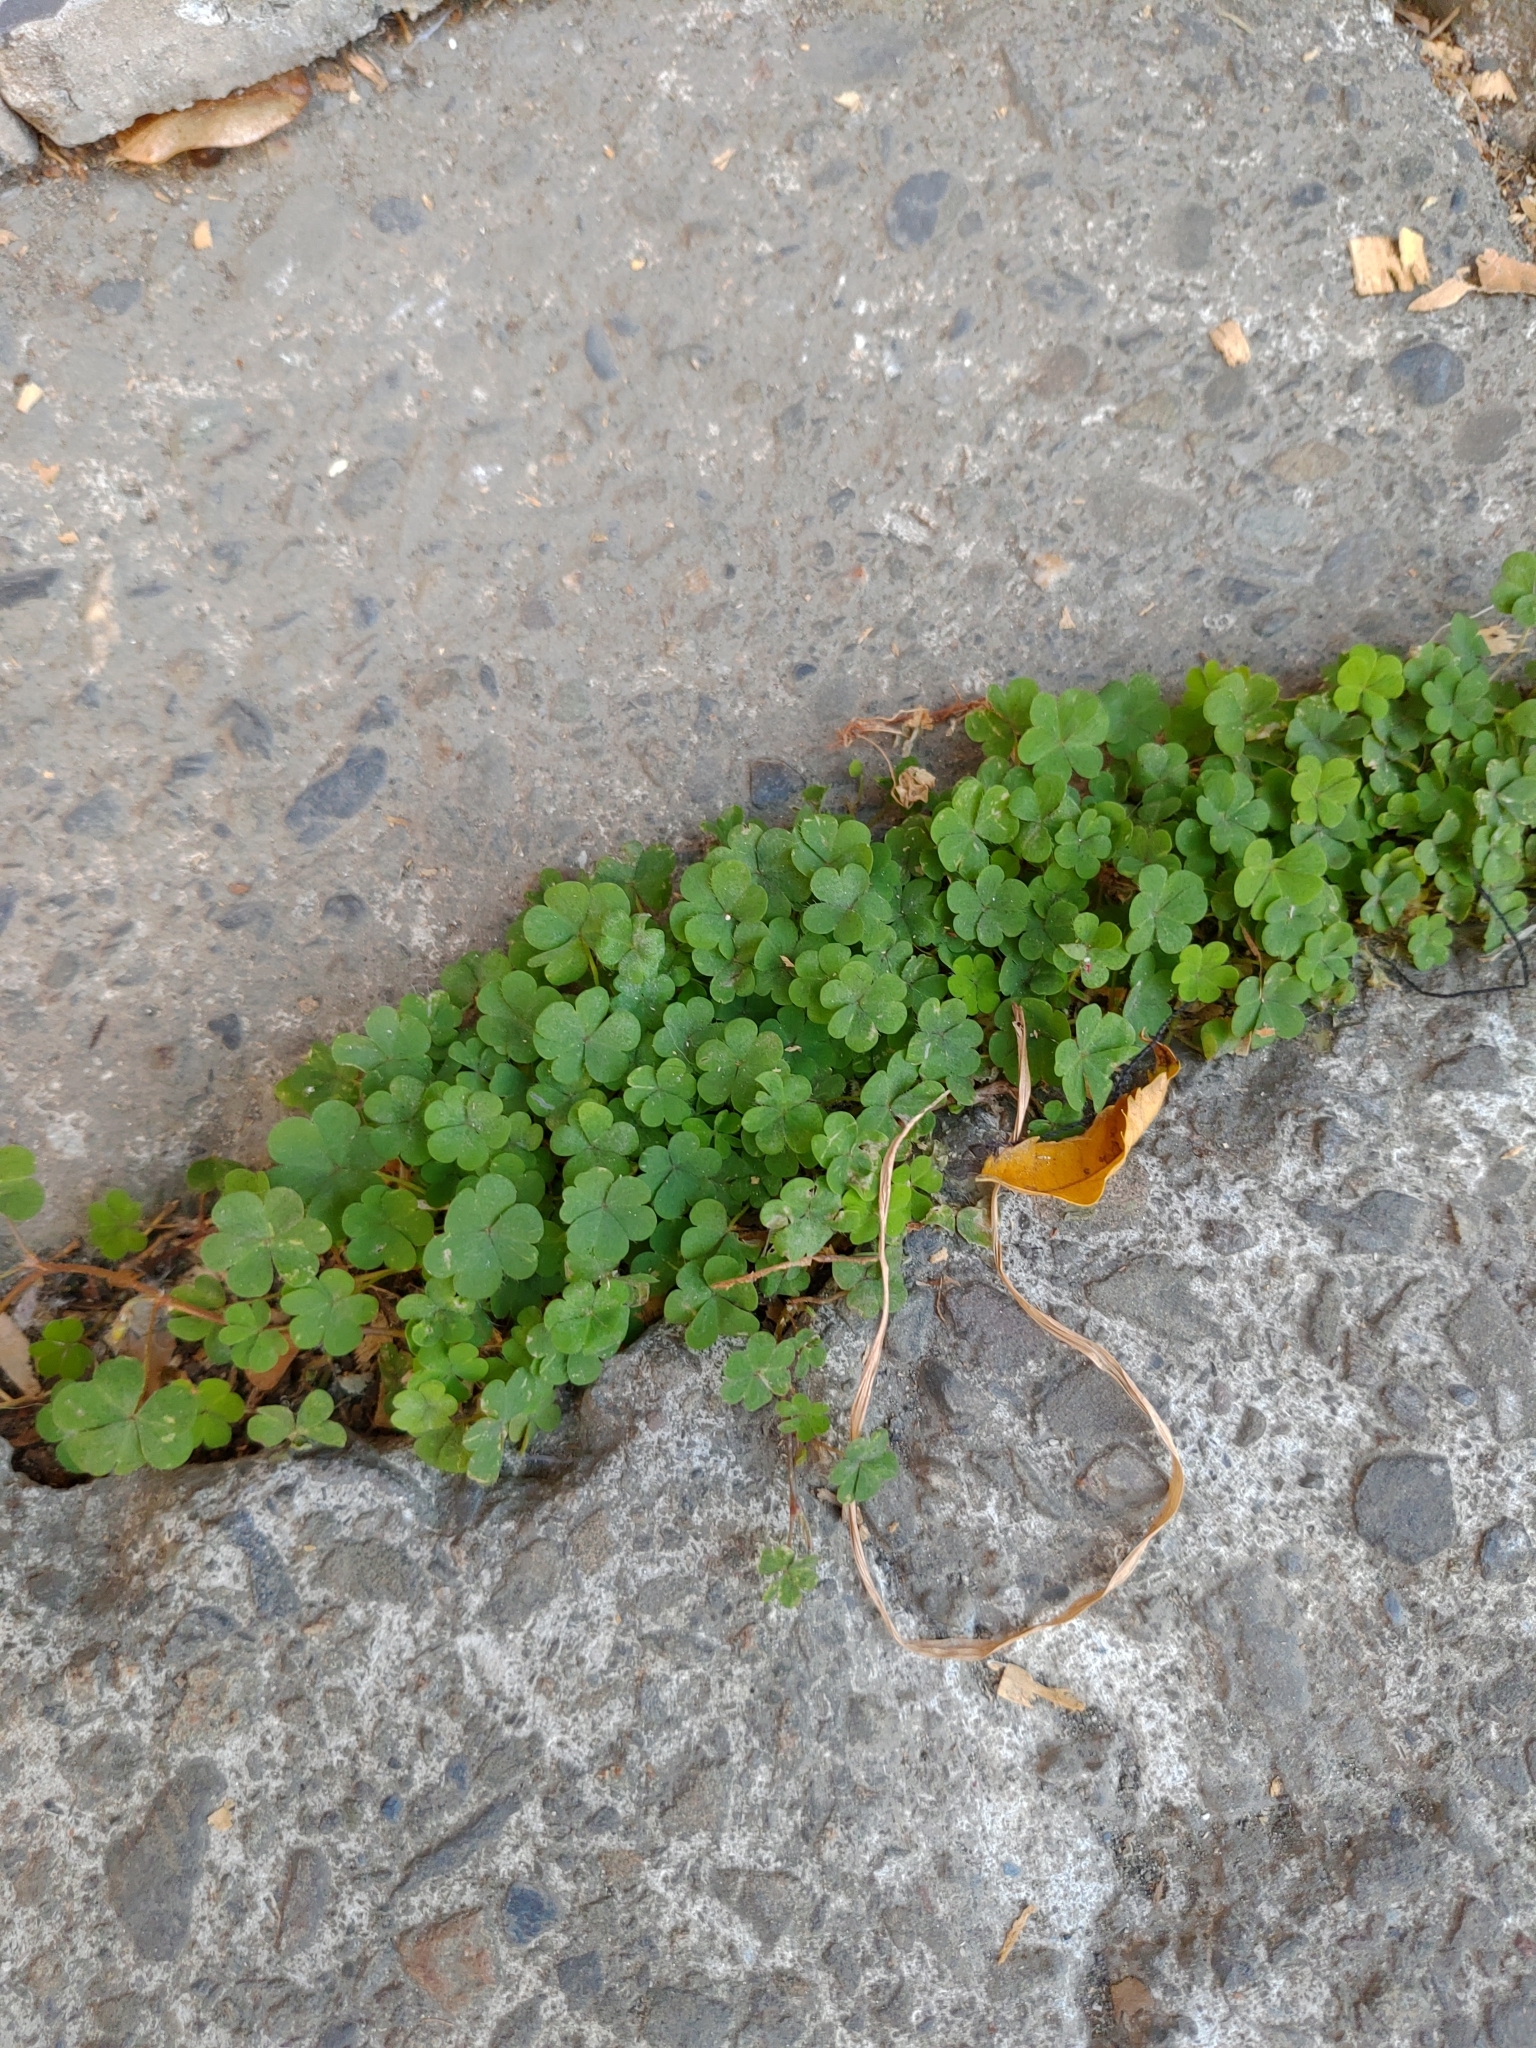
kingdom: Plantae
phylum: Tracheophyta
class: Magnoliopsida
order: Oxalidales
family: Oxalidaceae
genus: Oxalis
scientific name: Oxalis corniculata
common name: Procumbent yellow-sorrel
